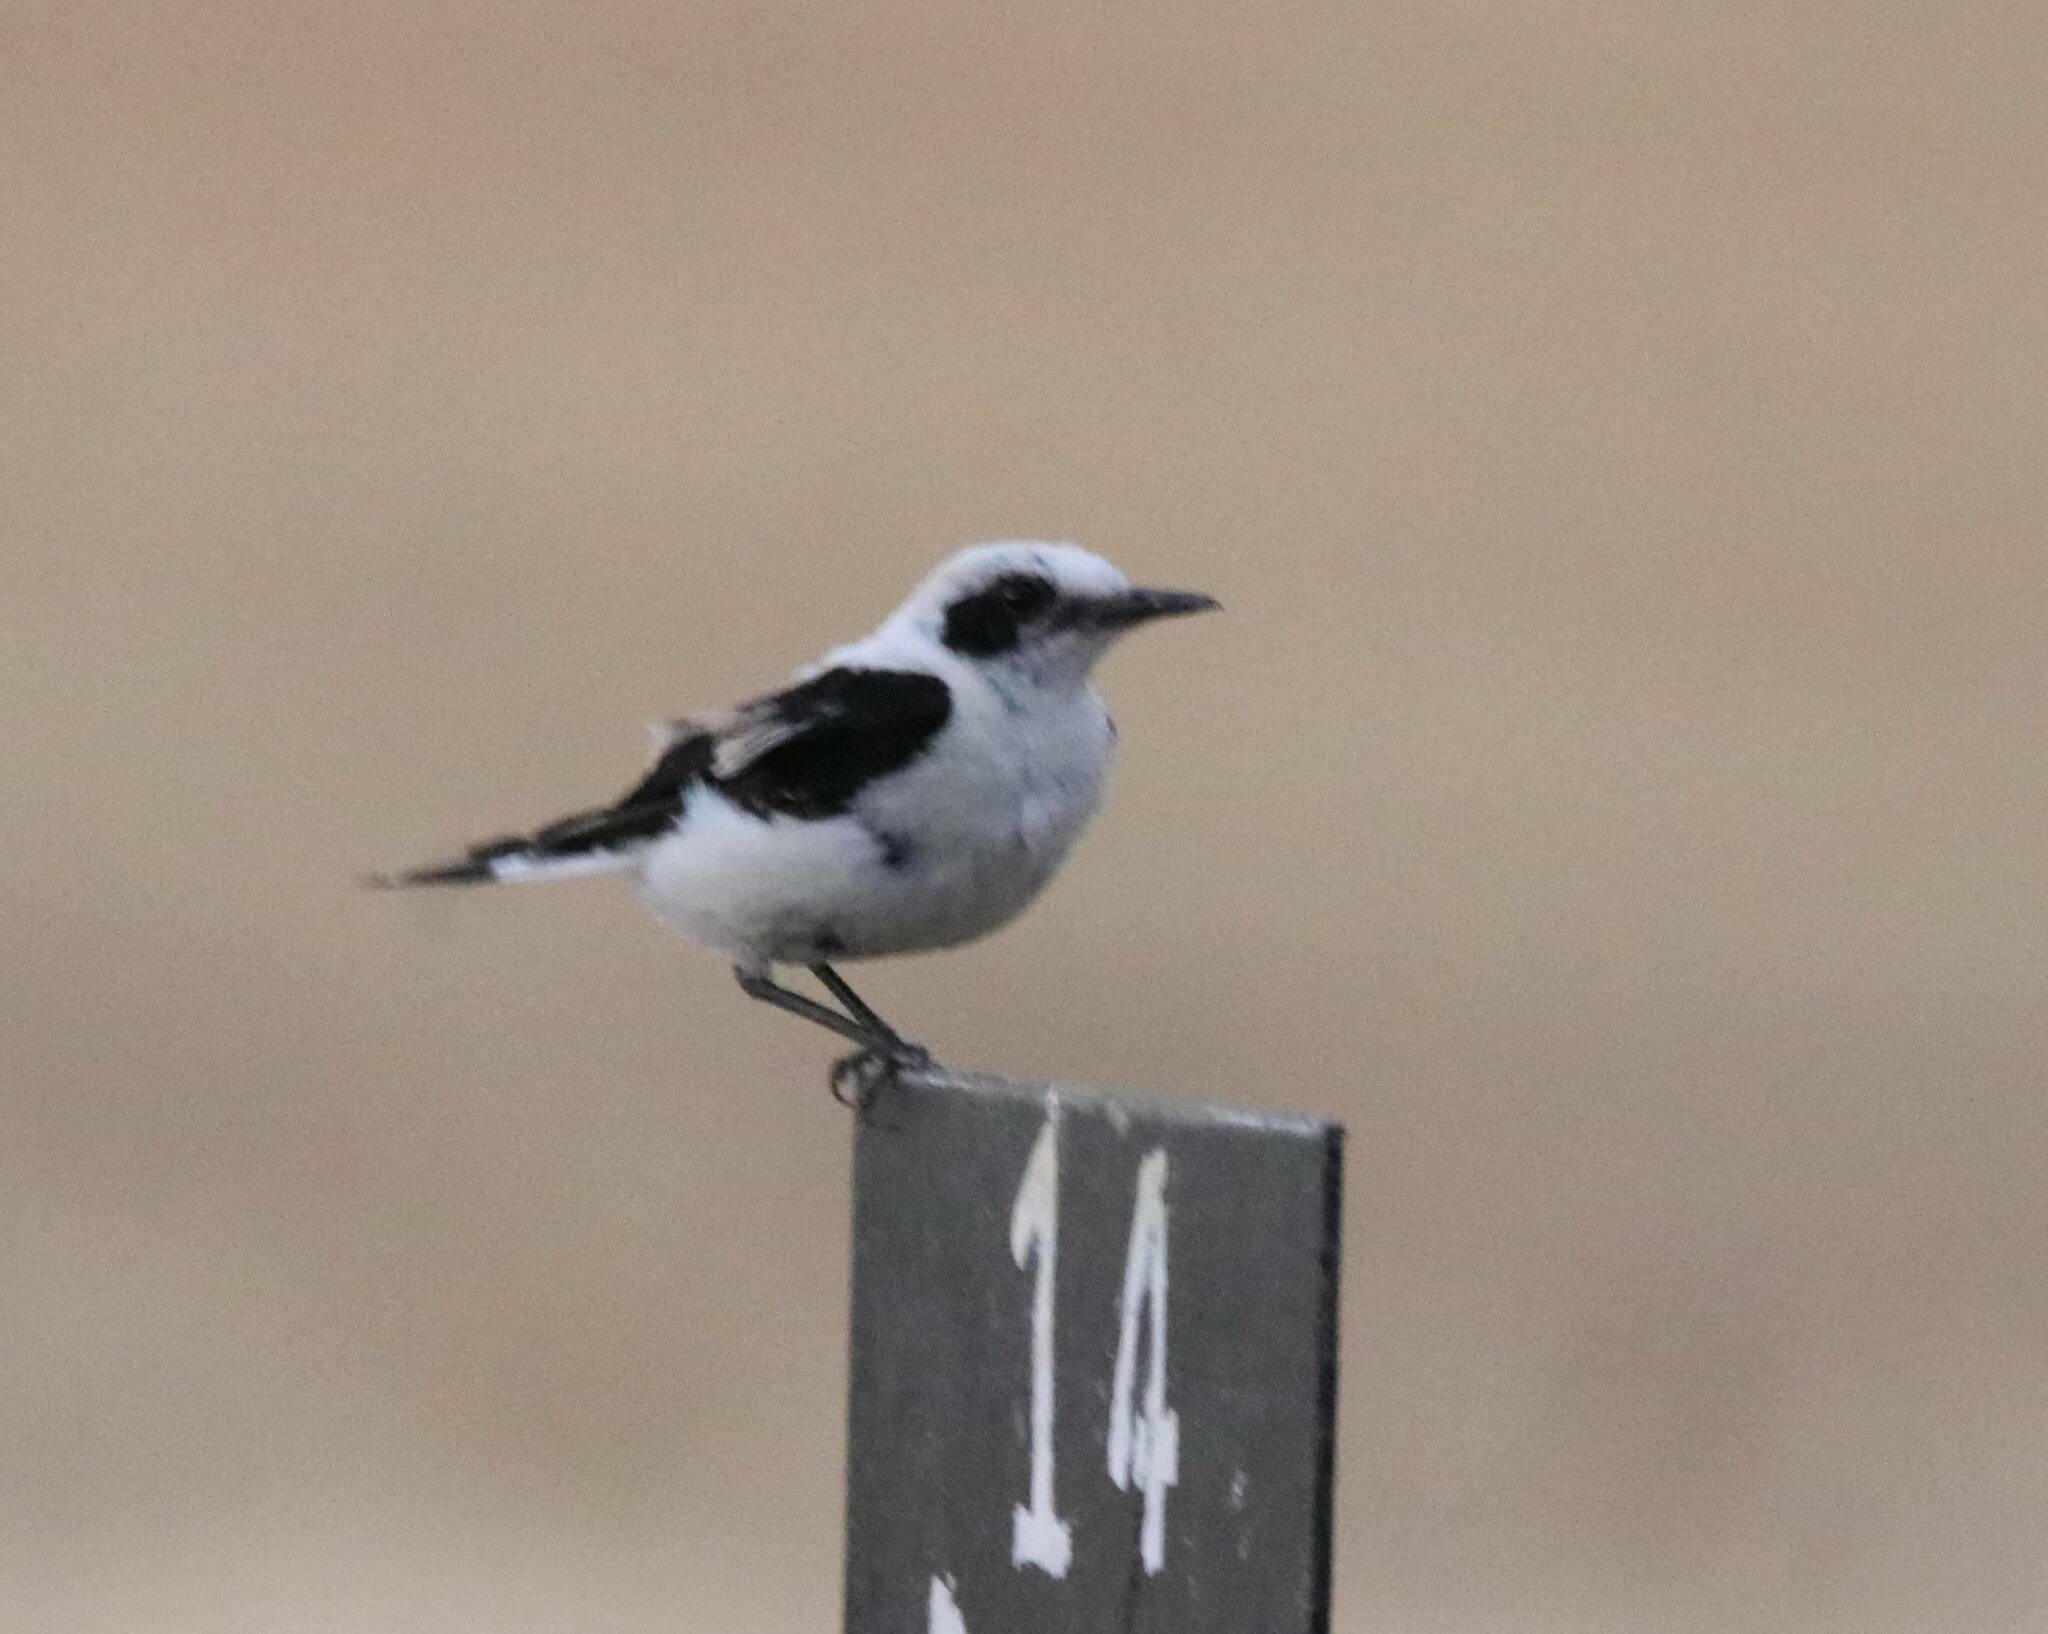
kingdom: Animalia
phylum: Chordata
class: Aves
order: Passeriformes
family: Muscicapidae
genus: Oenanthe
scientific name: Oenanthe hispanica
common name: Black-eared wheatear
